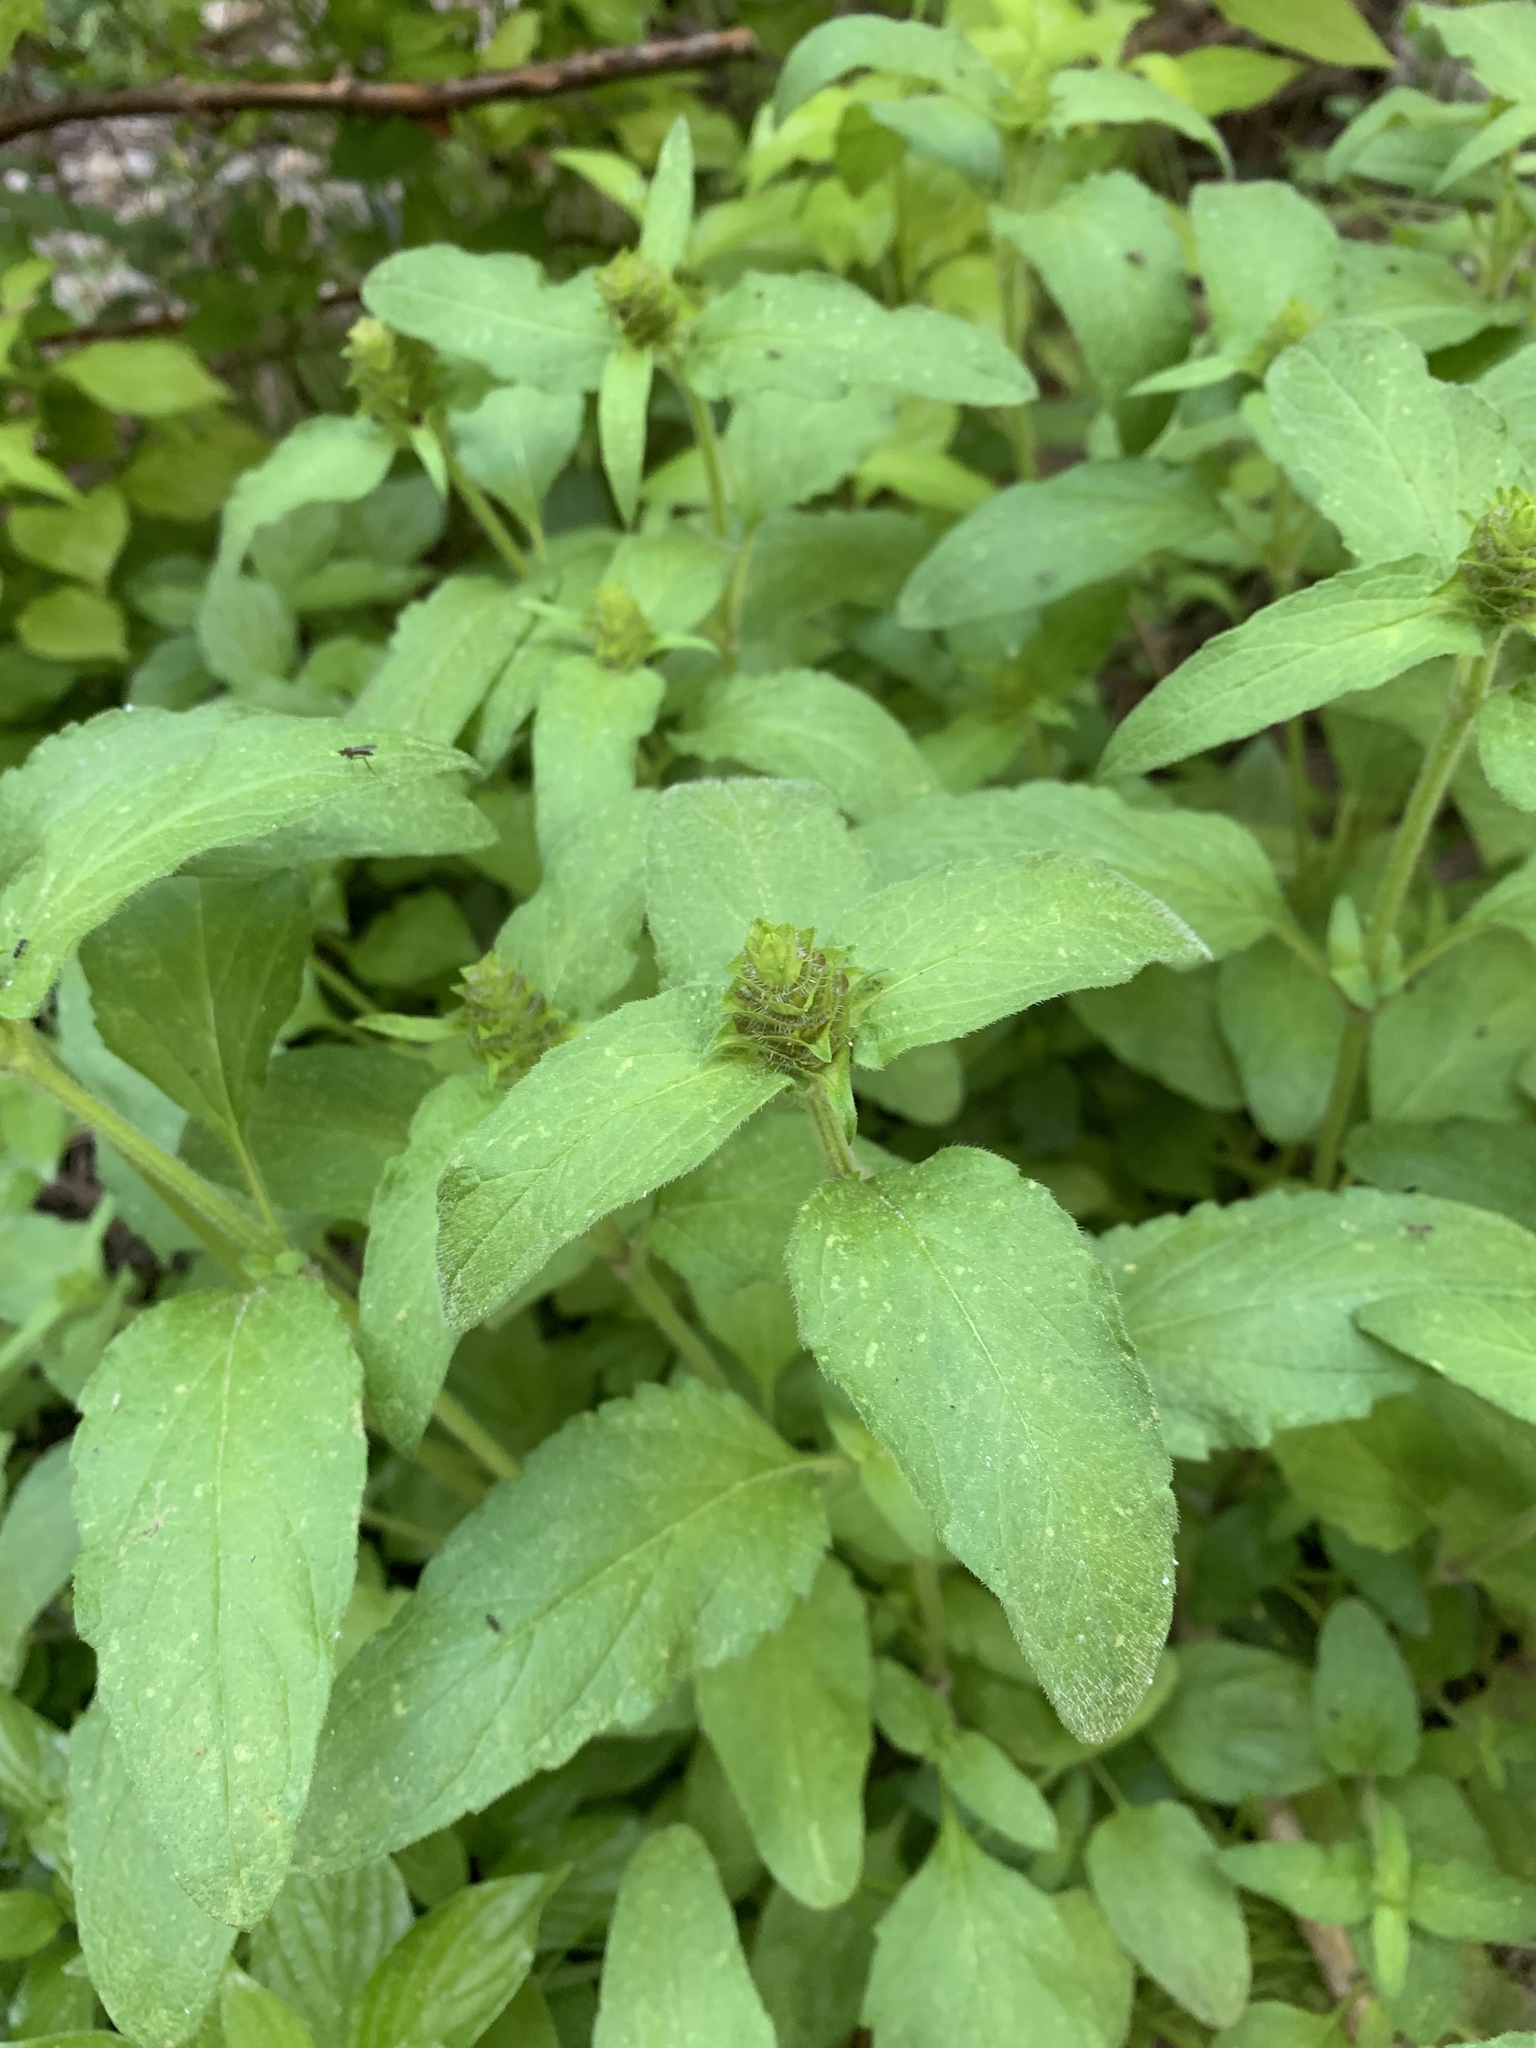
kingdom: Plantae
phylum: Tracheophyta
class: Magnoliopsida
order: Lamiales
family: Lamiaceae
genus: Prunella
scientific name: Prunella vulgaris
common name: Heal-all
